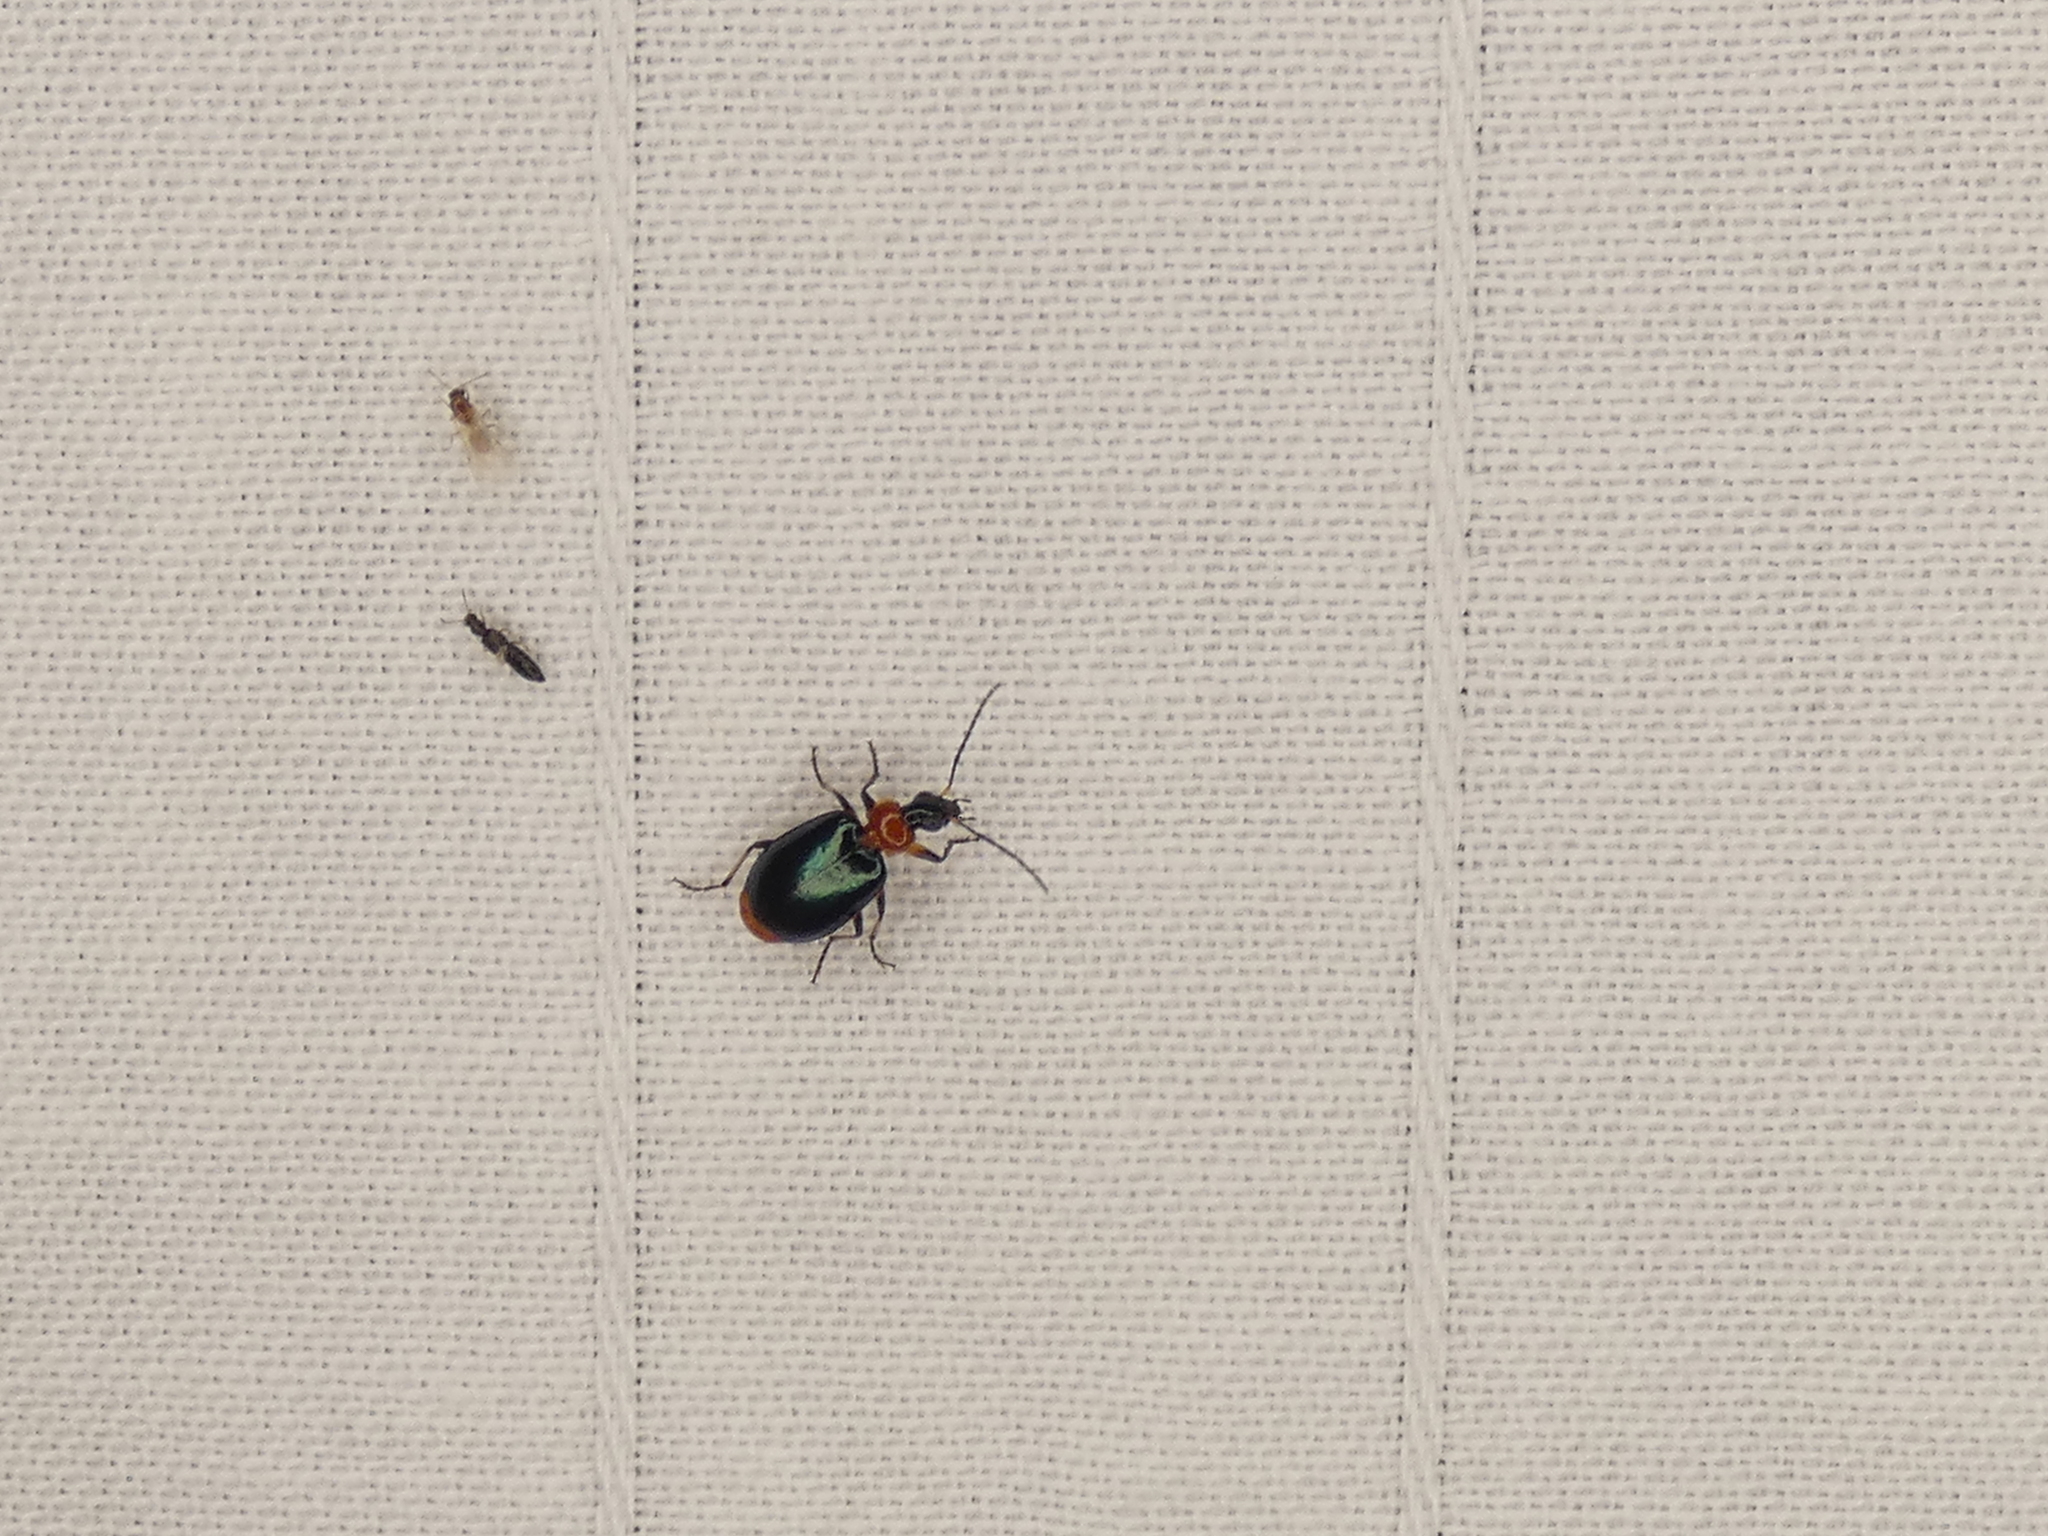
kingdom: Animalia
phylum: Arthropoda
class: Insecta
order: Coleoptera
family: Carabidae
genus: Lebia
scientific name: Lebia viridipennis
